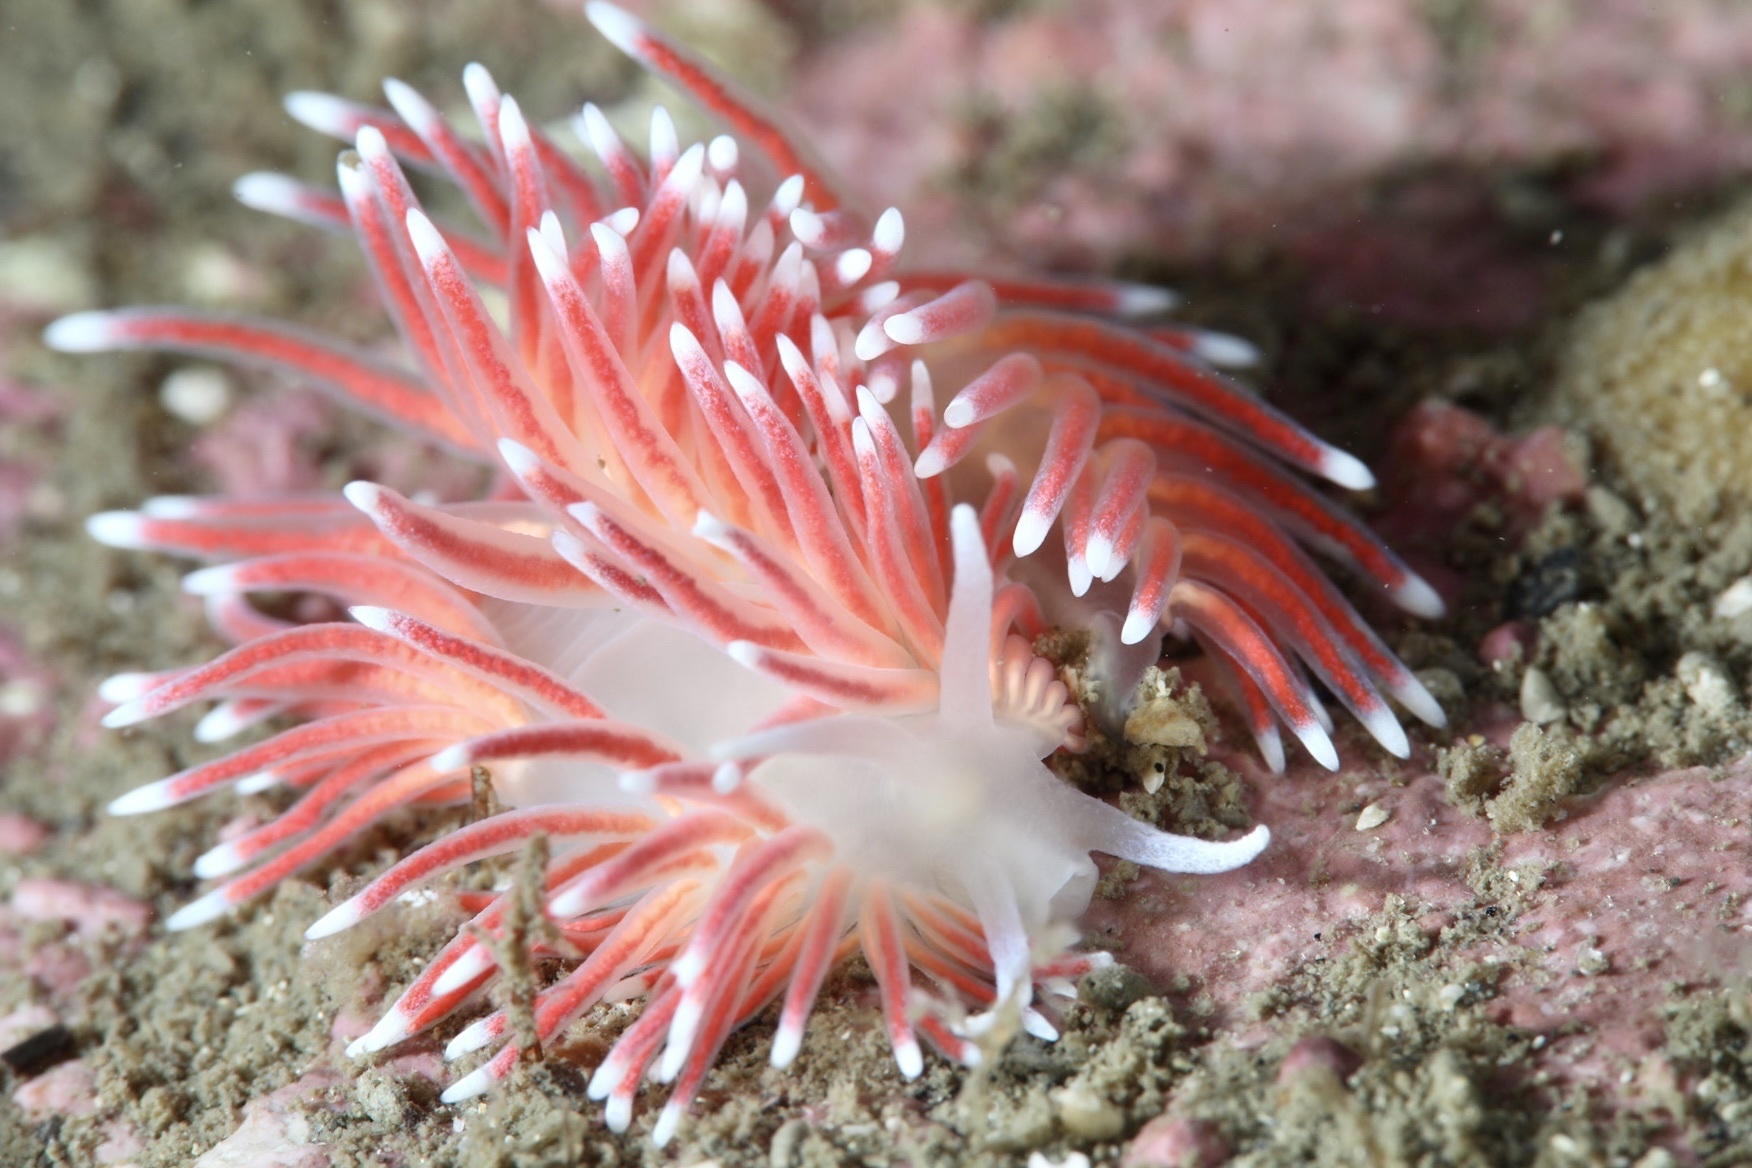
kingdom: Animalia
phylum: Mollusca
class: Gastropoda
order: Nudibranchia
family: Flabellinidae
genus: Carronella
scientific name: Carronella pellucida
